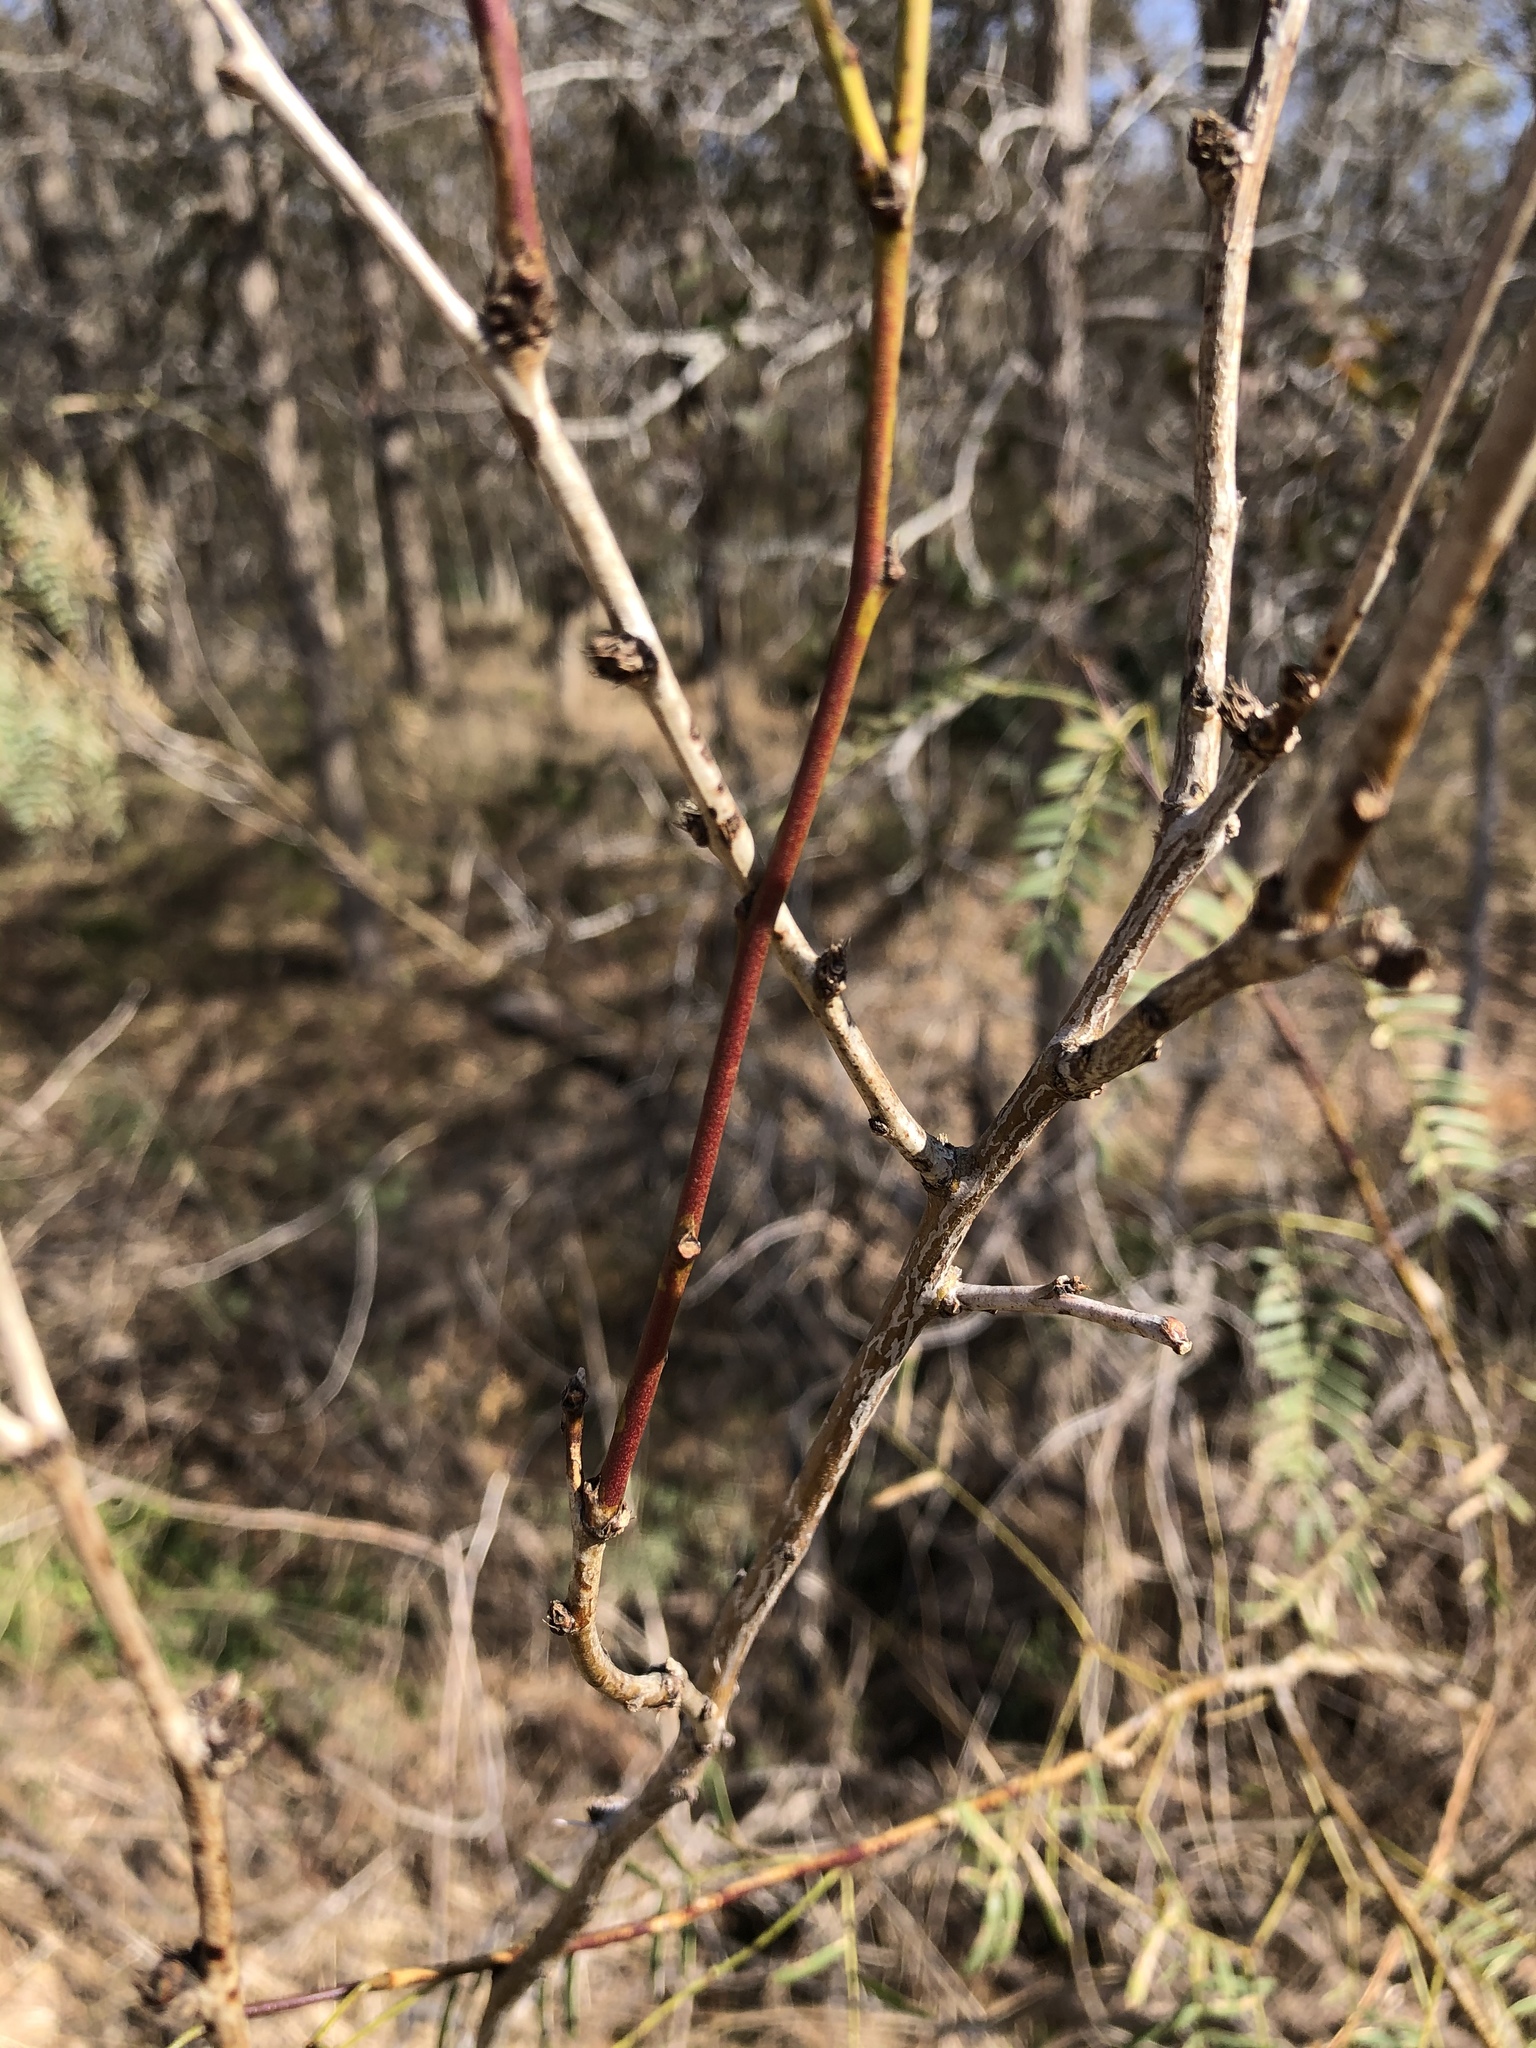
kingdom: Plantae
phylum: Tracheophyta
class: Magnoliopsida
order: Fabales
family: Fabaceae
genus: Prosopis
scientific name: Prosopis glandulosa
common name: Honey mesquite
